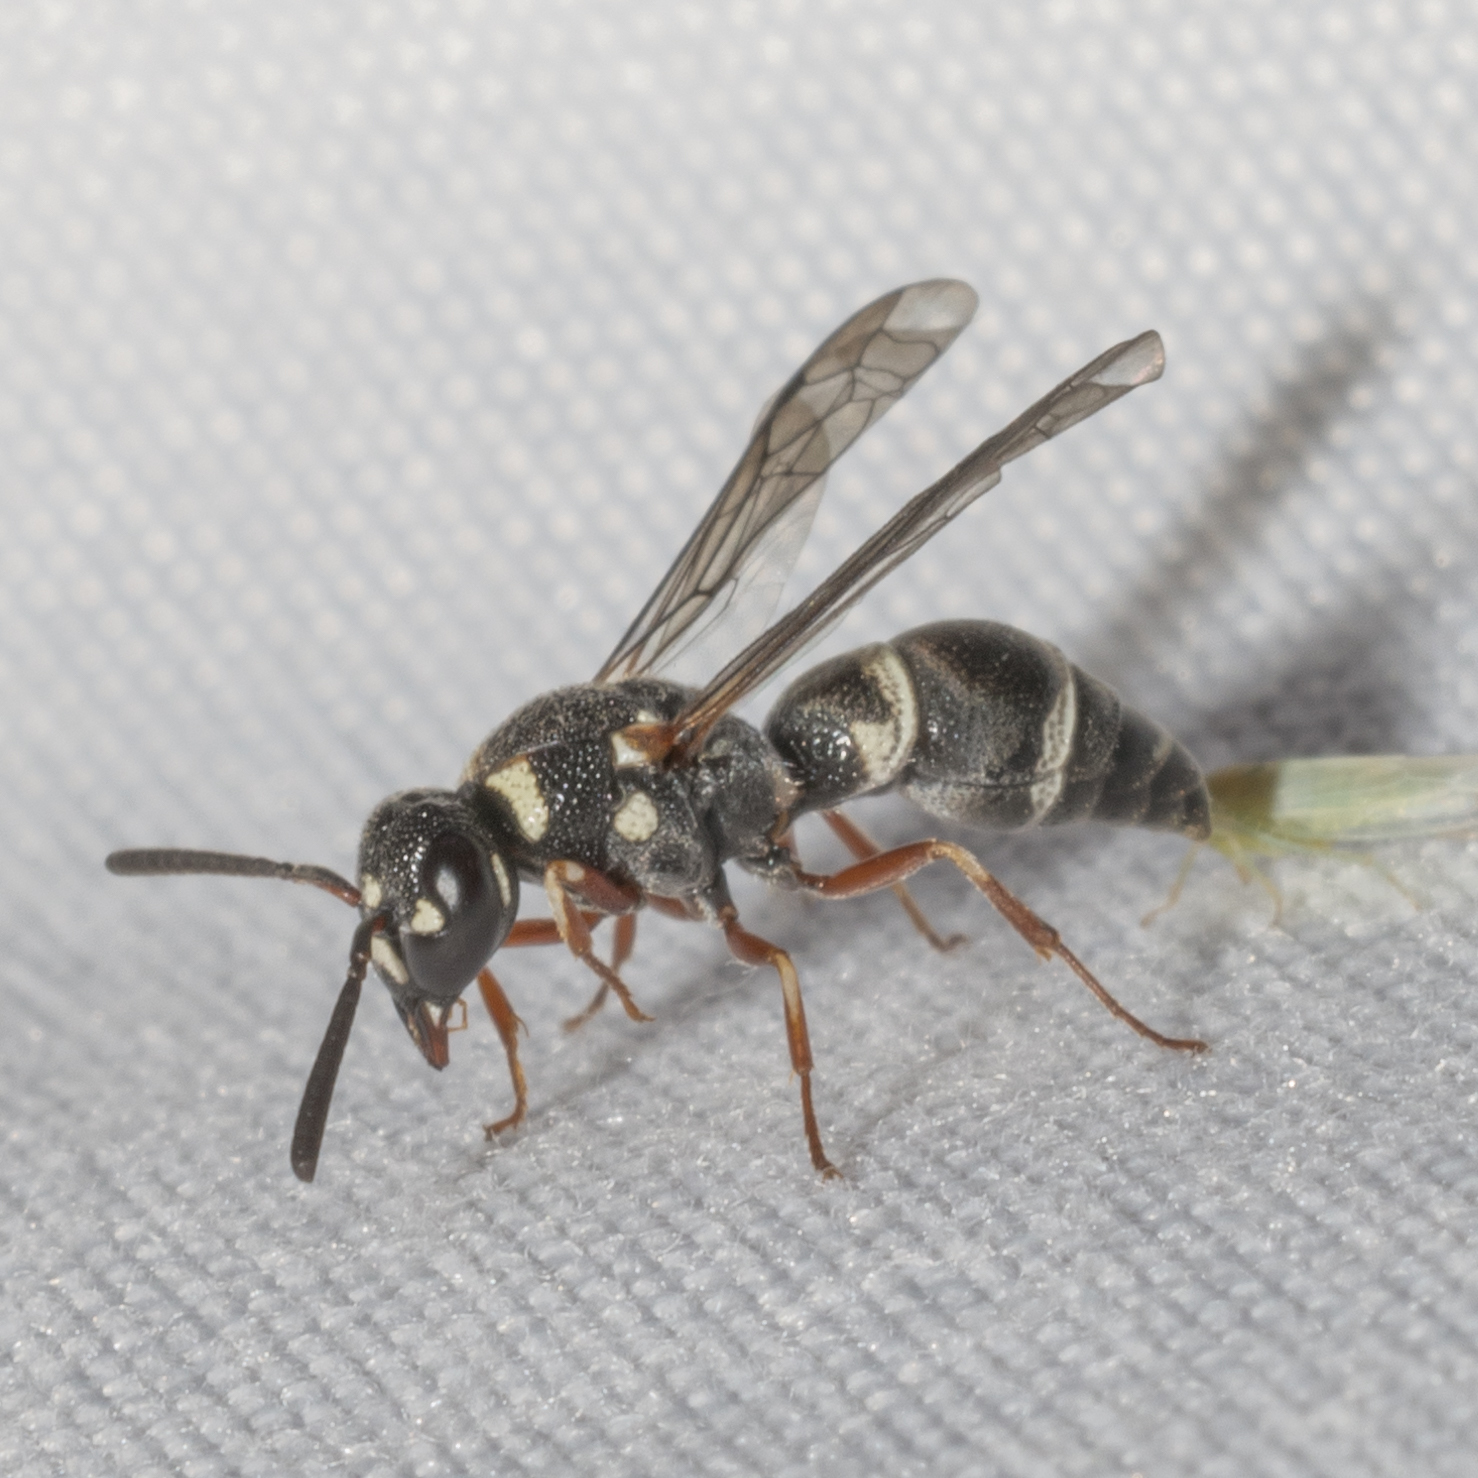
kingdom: Animalia
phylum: Arthropoda
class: Insecta
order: Hymenoptera
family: Eumenidae
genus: Parancistrocerus
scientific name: Parancistrocerus minimoferus
